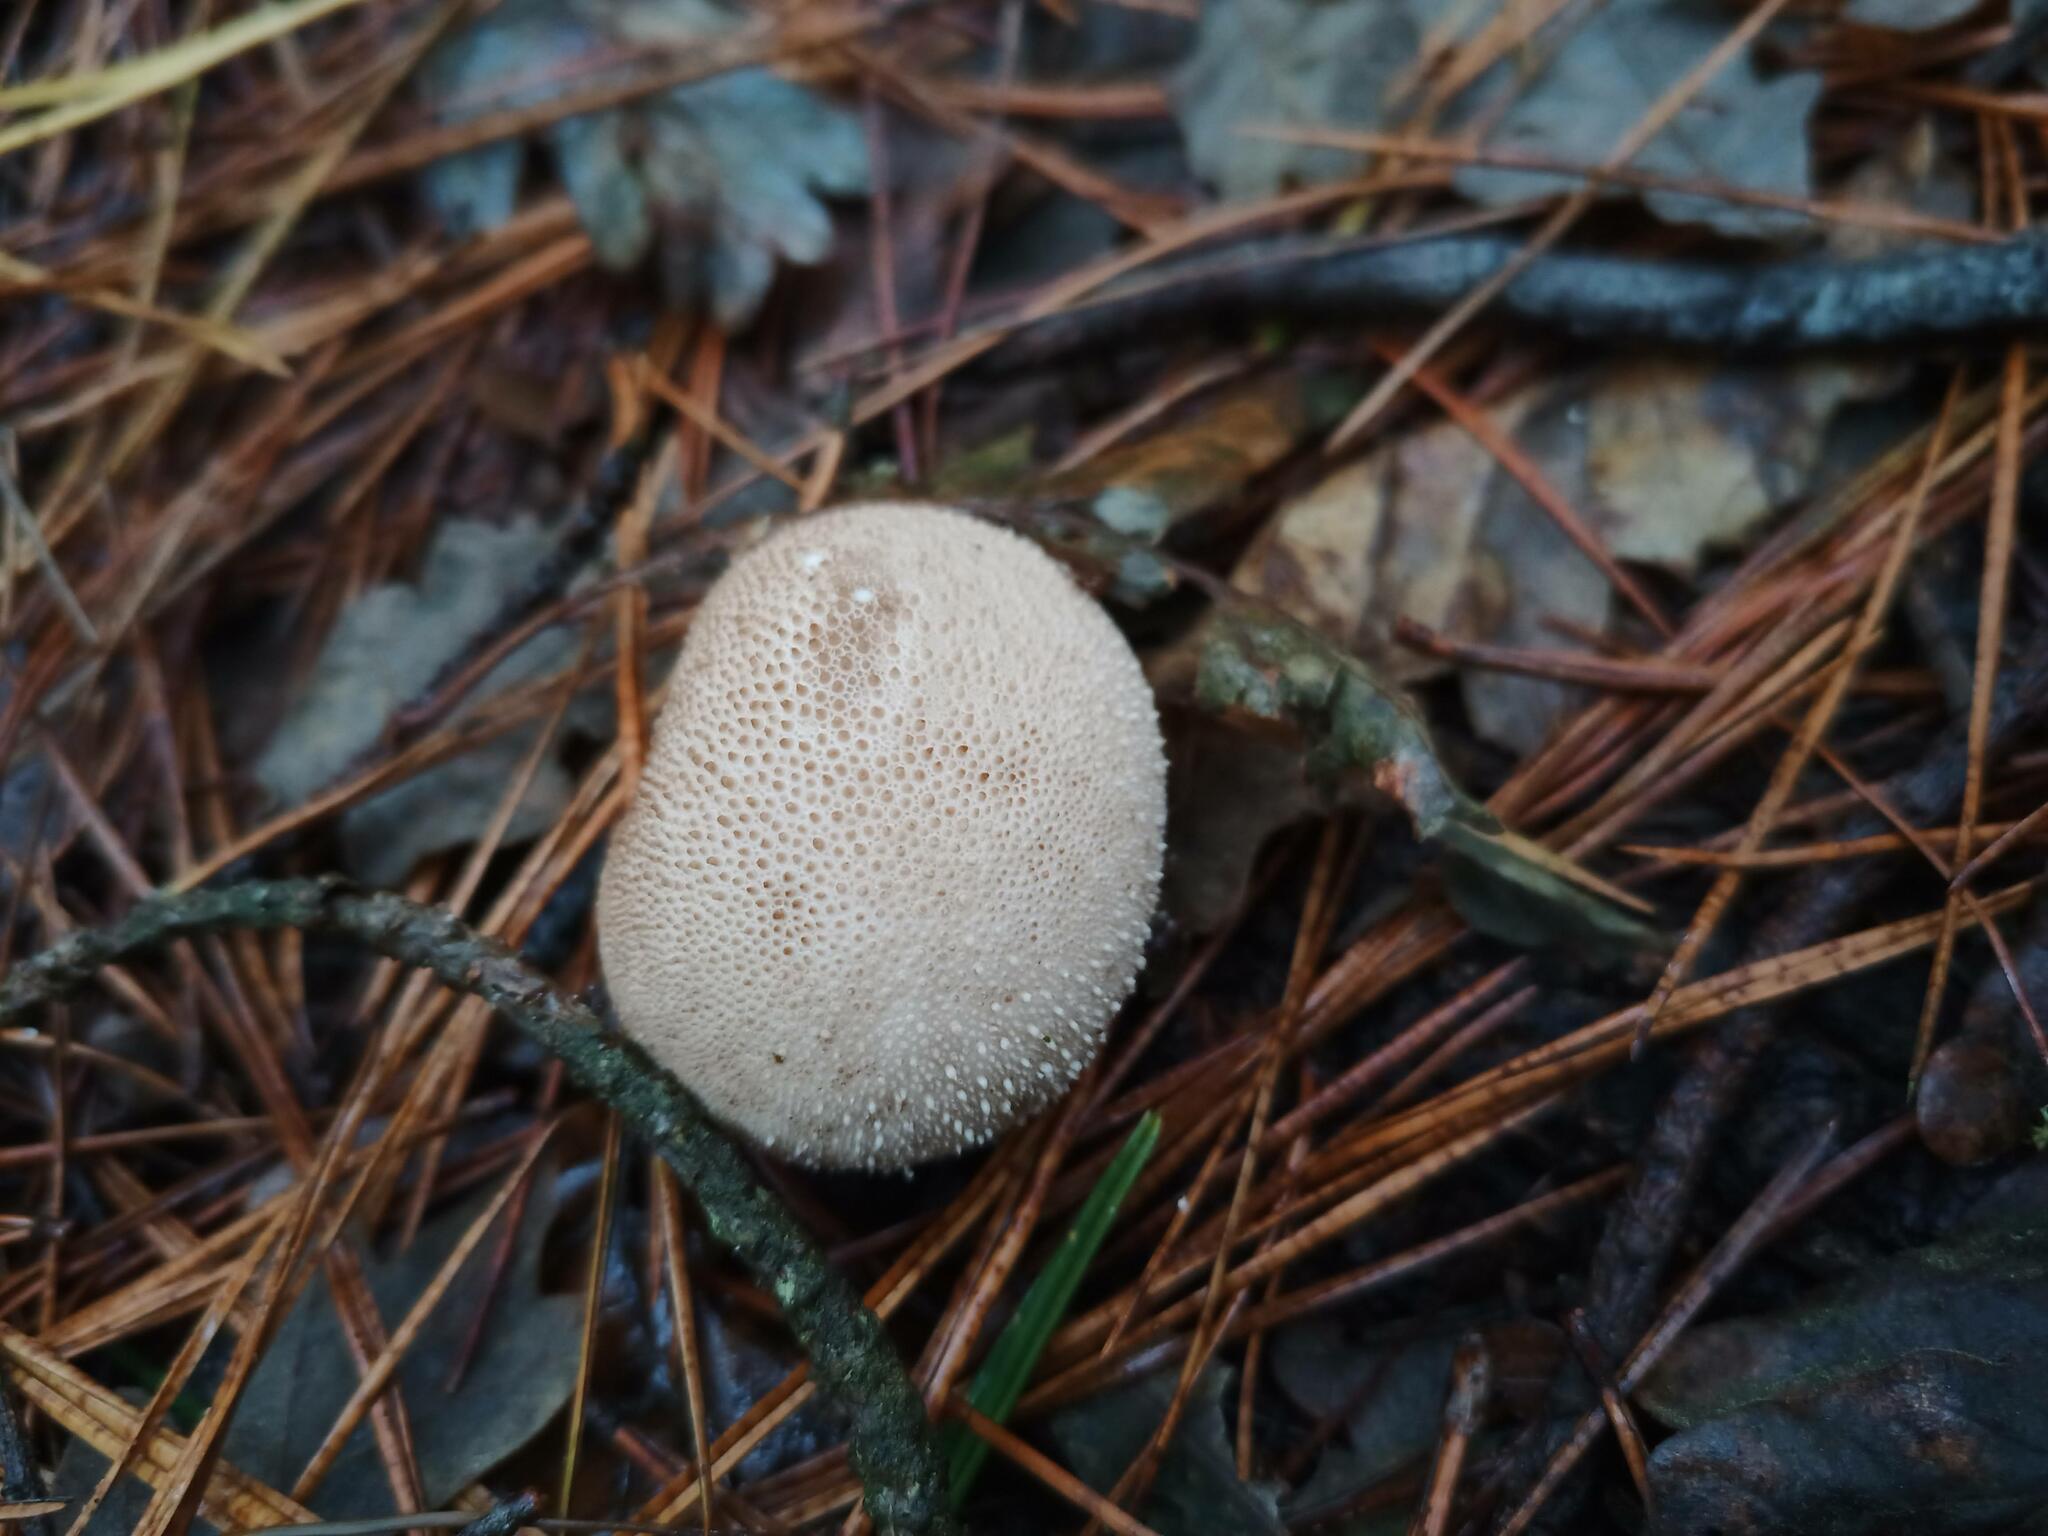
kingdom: Fungi
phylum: Basidiomycota
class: Agaricomycetes
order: Agaricales
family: Lycoperdaceae
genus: Lycoperdon
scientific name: Lycoperdon perlatum
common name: Common puffball
